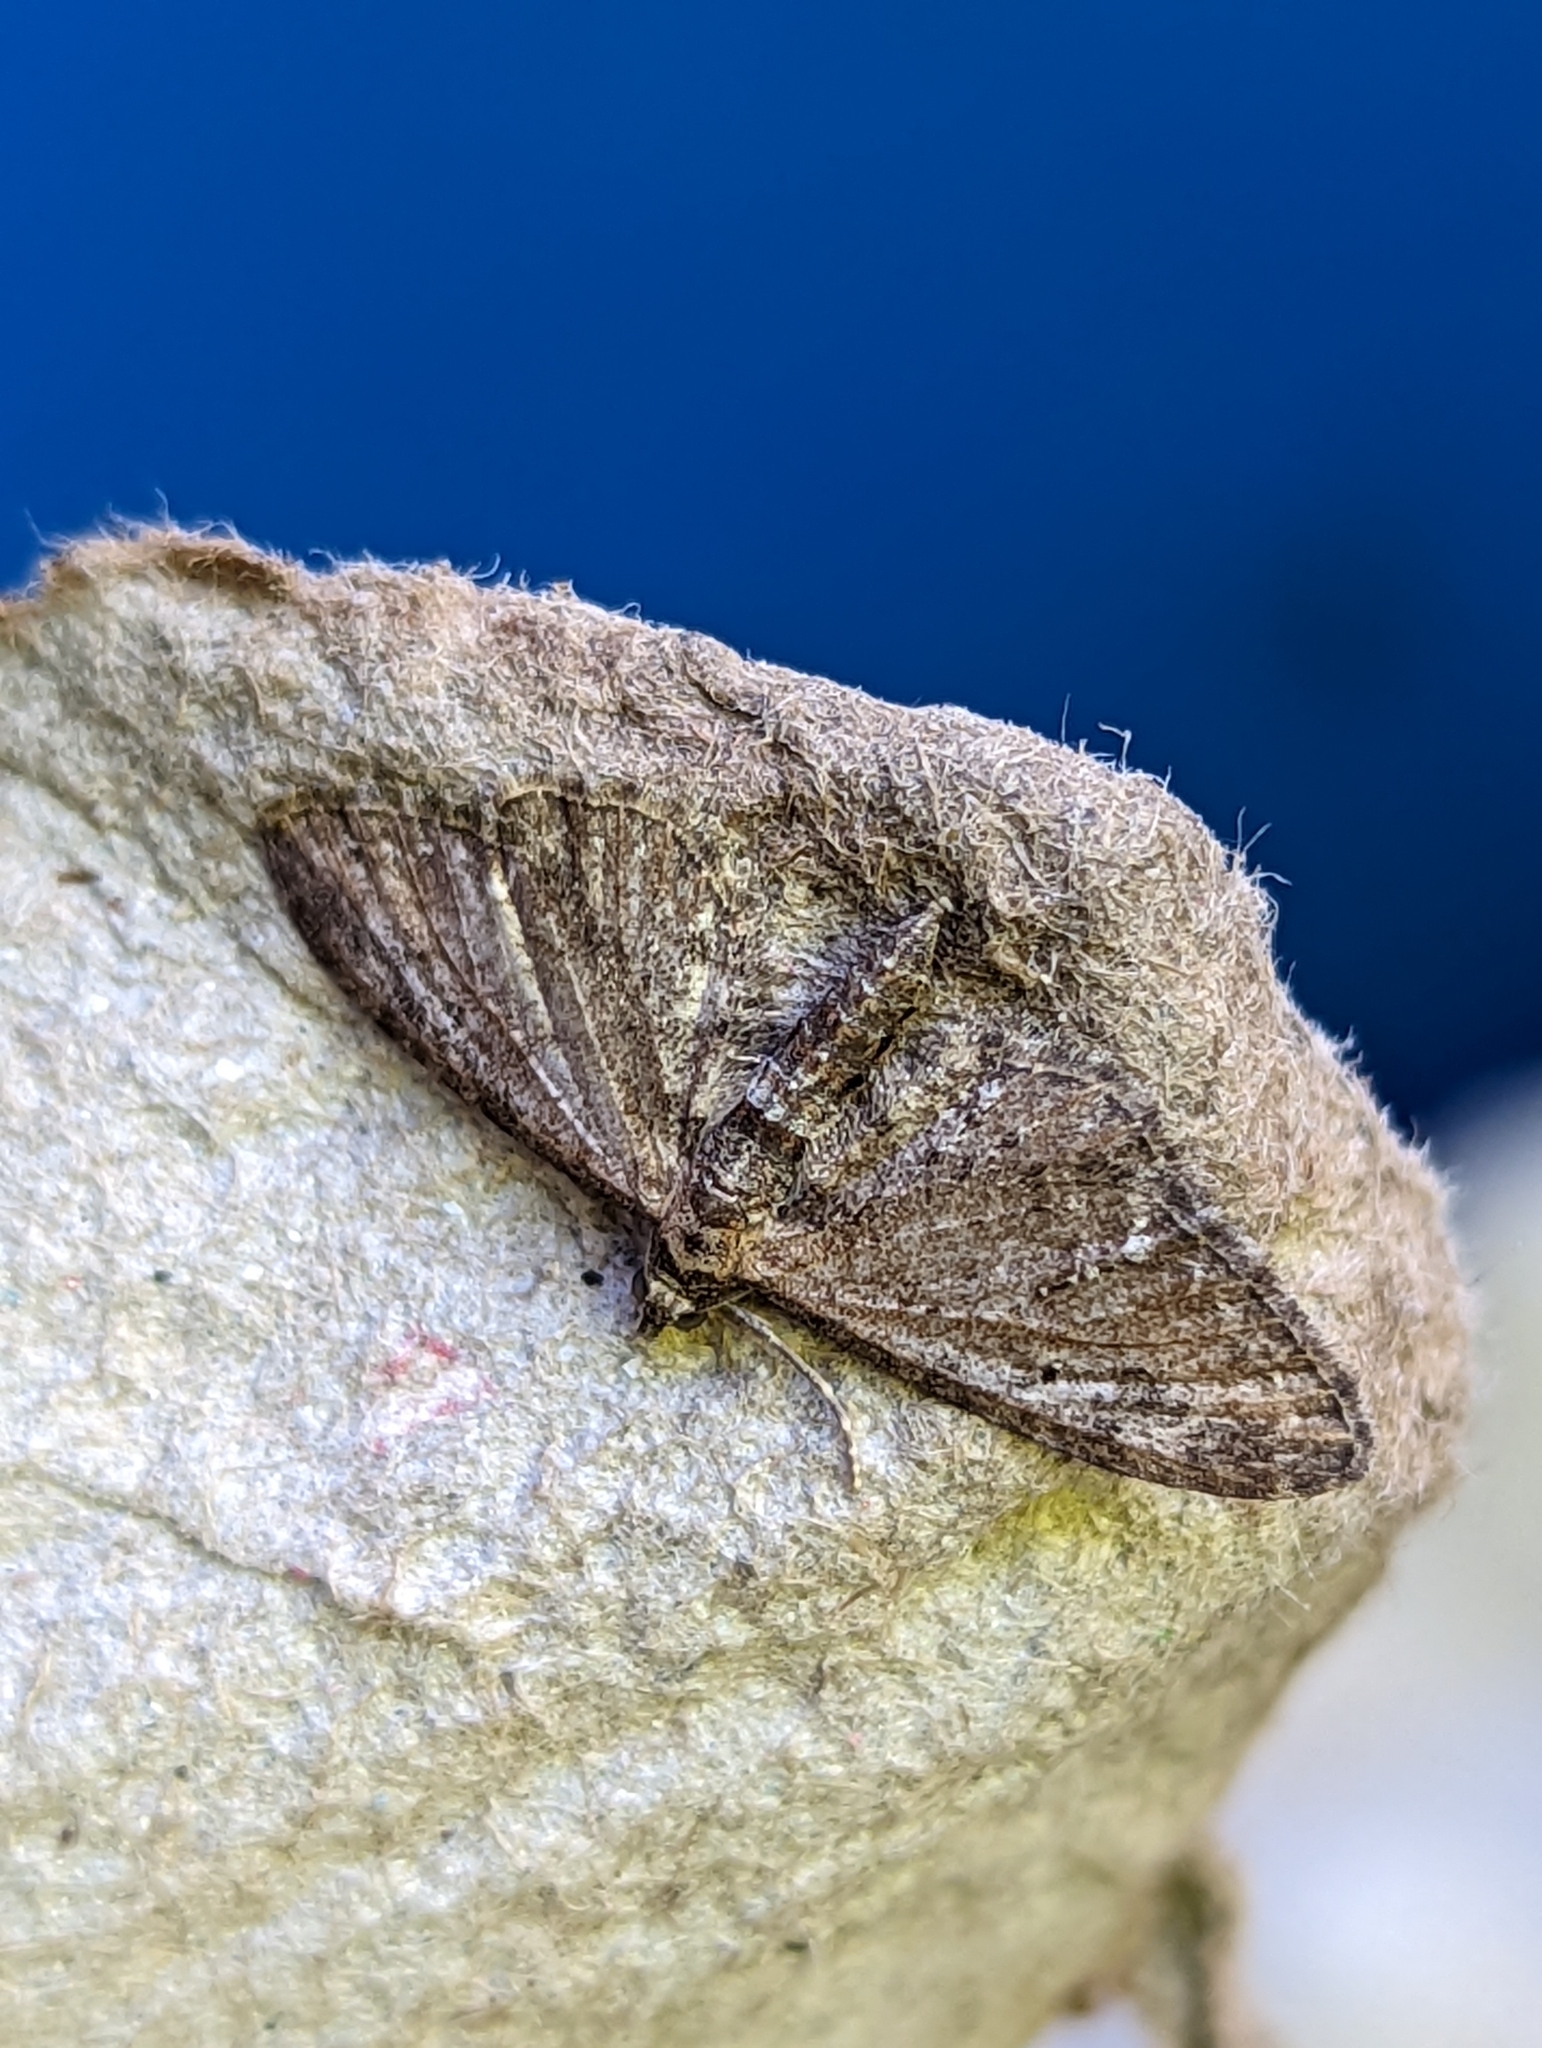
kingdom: Animalia
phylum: Arthropoda
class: Insecta
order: Lepidoptera
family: Geometridae
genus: Eupithecia
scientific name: Eupithecia vulgata
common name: Common pug
